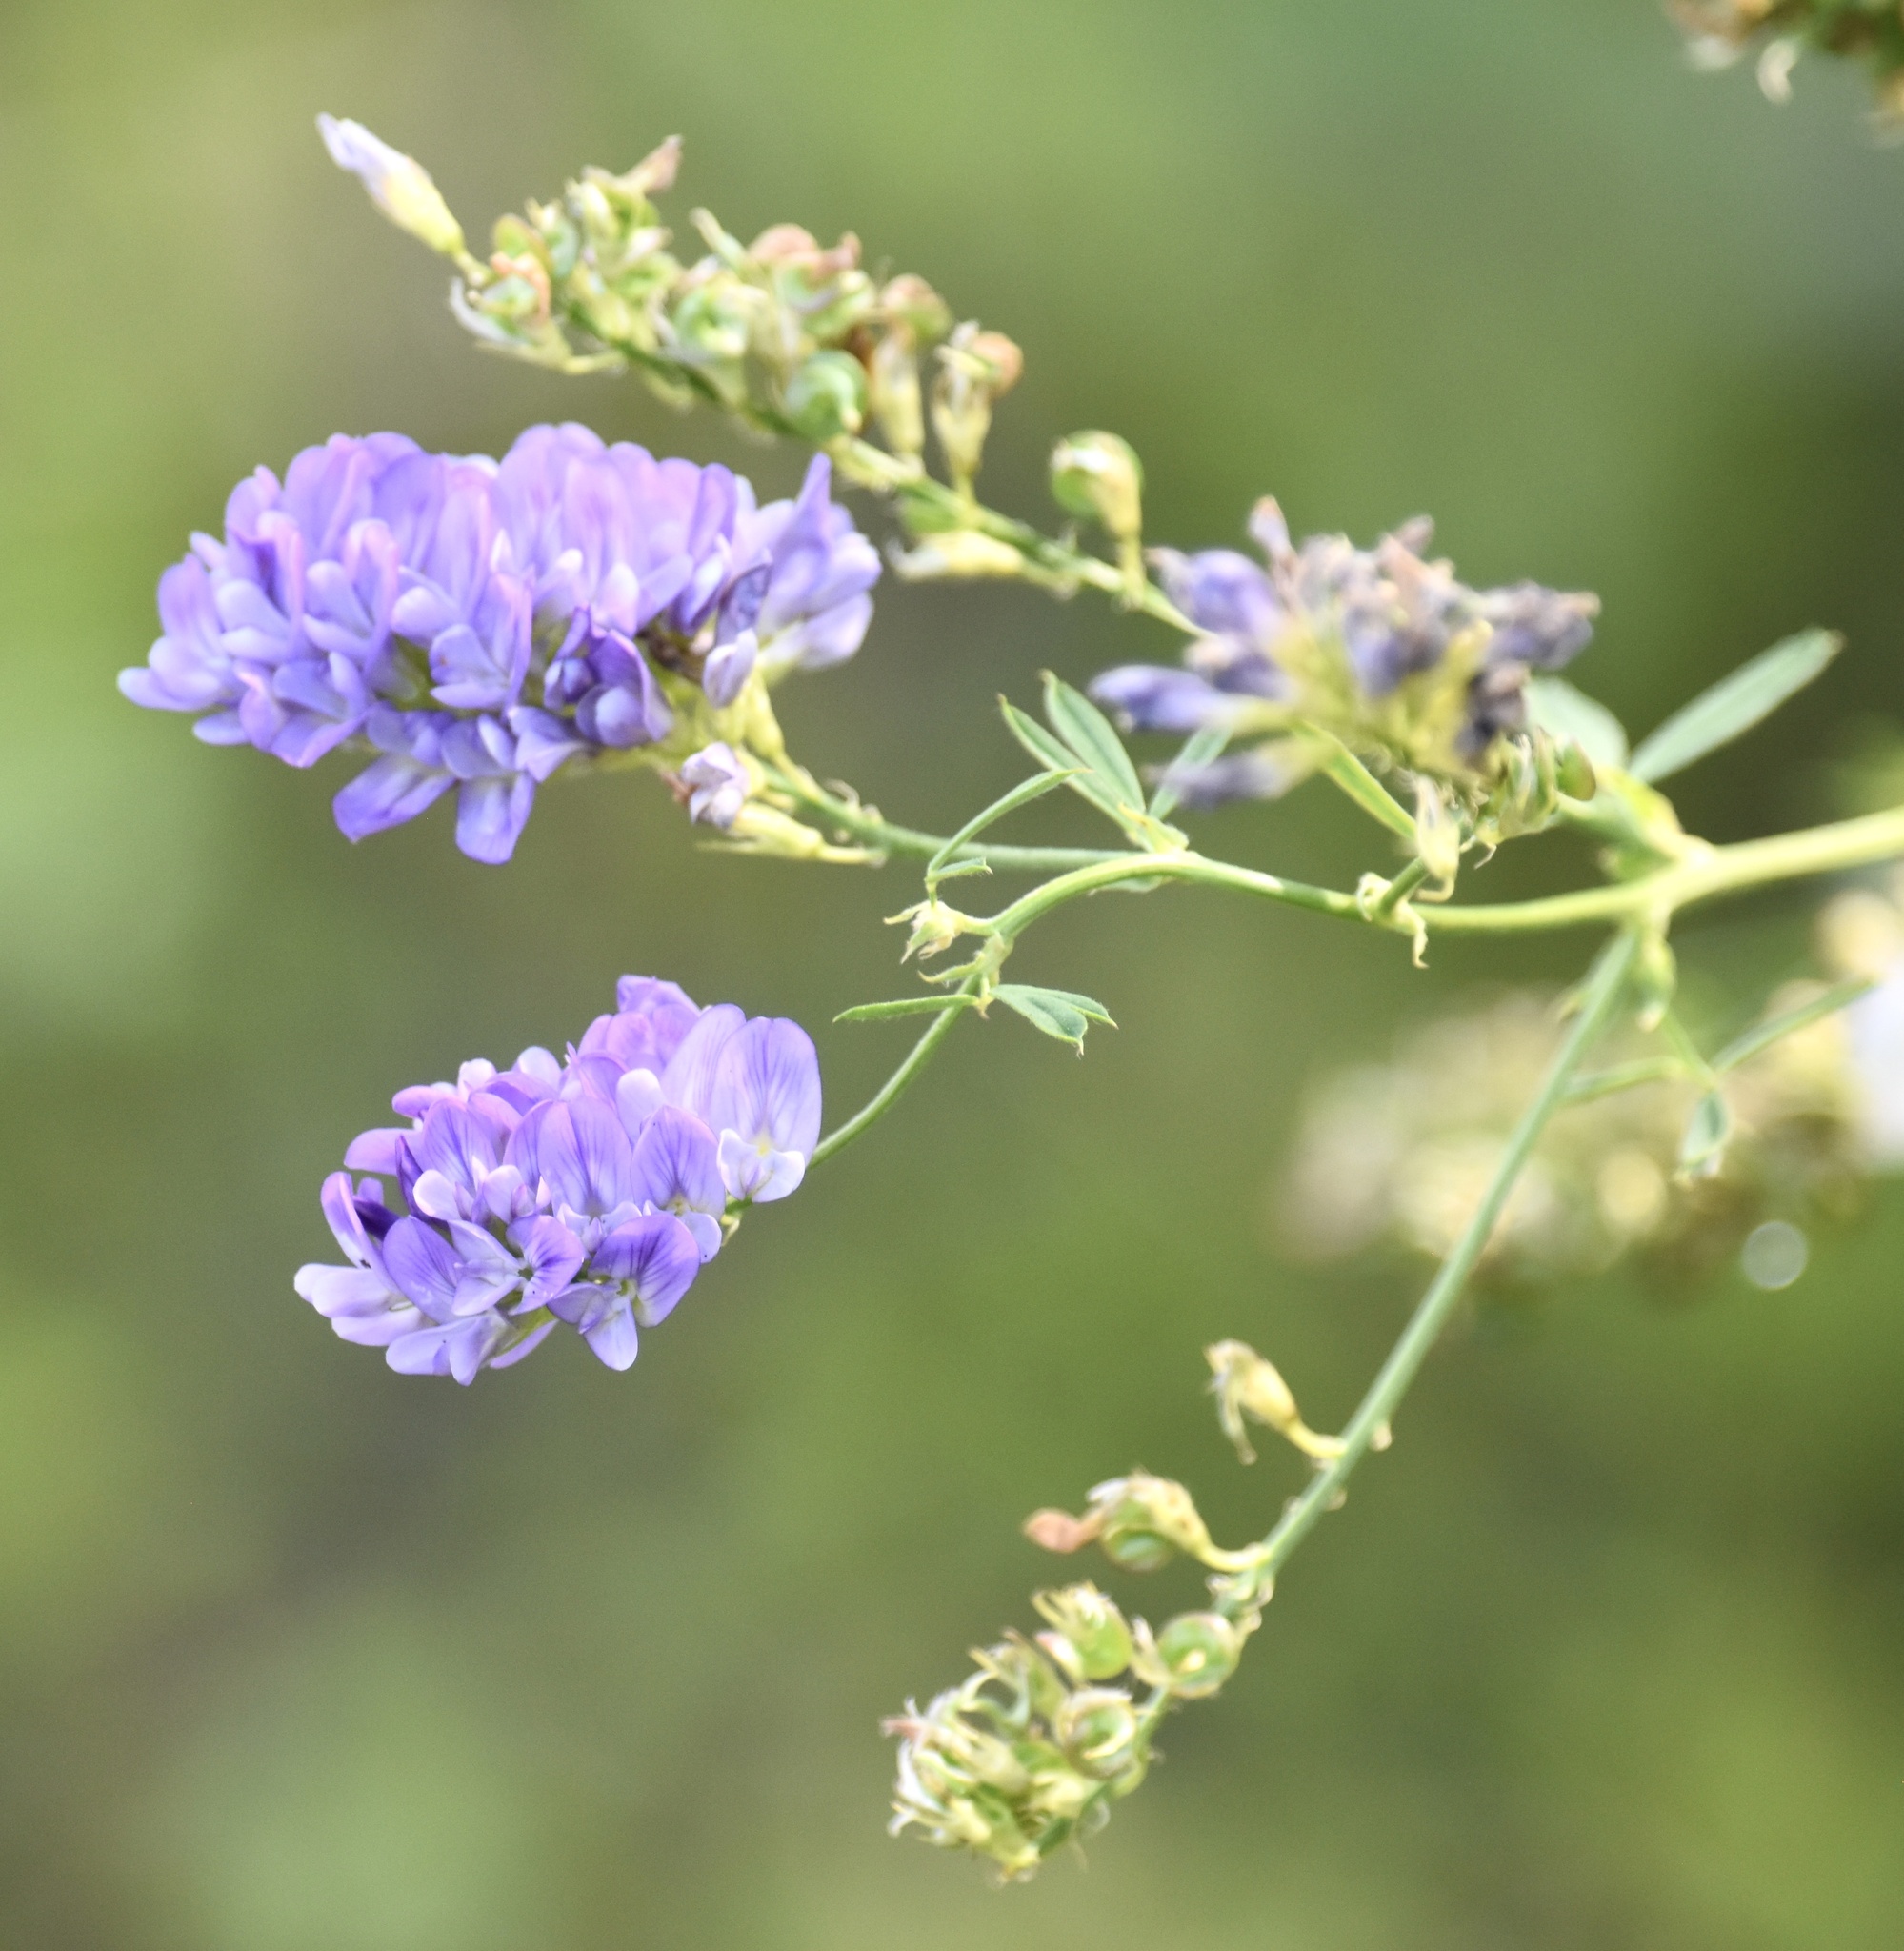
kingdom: Plantae
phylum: Tracheophyta
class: Magnoliopsida
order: Fabales
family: Fabaceae
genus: Medicago
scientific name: Medicago sativa
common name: Alfalfa
